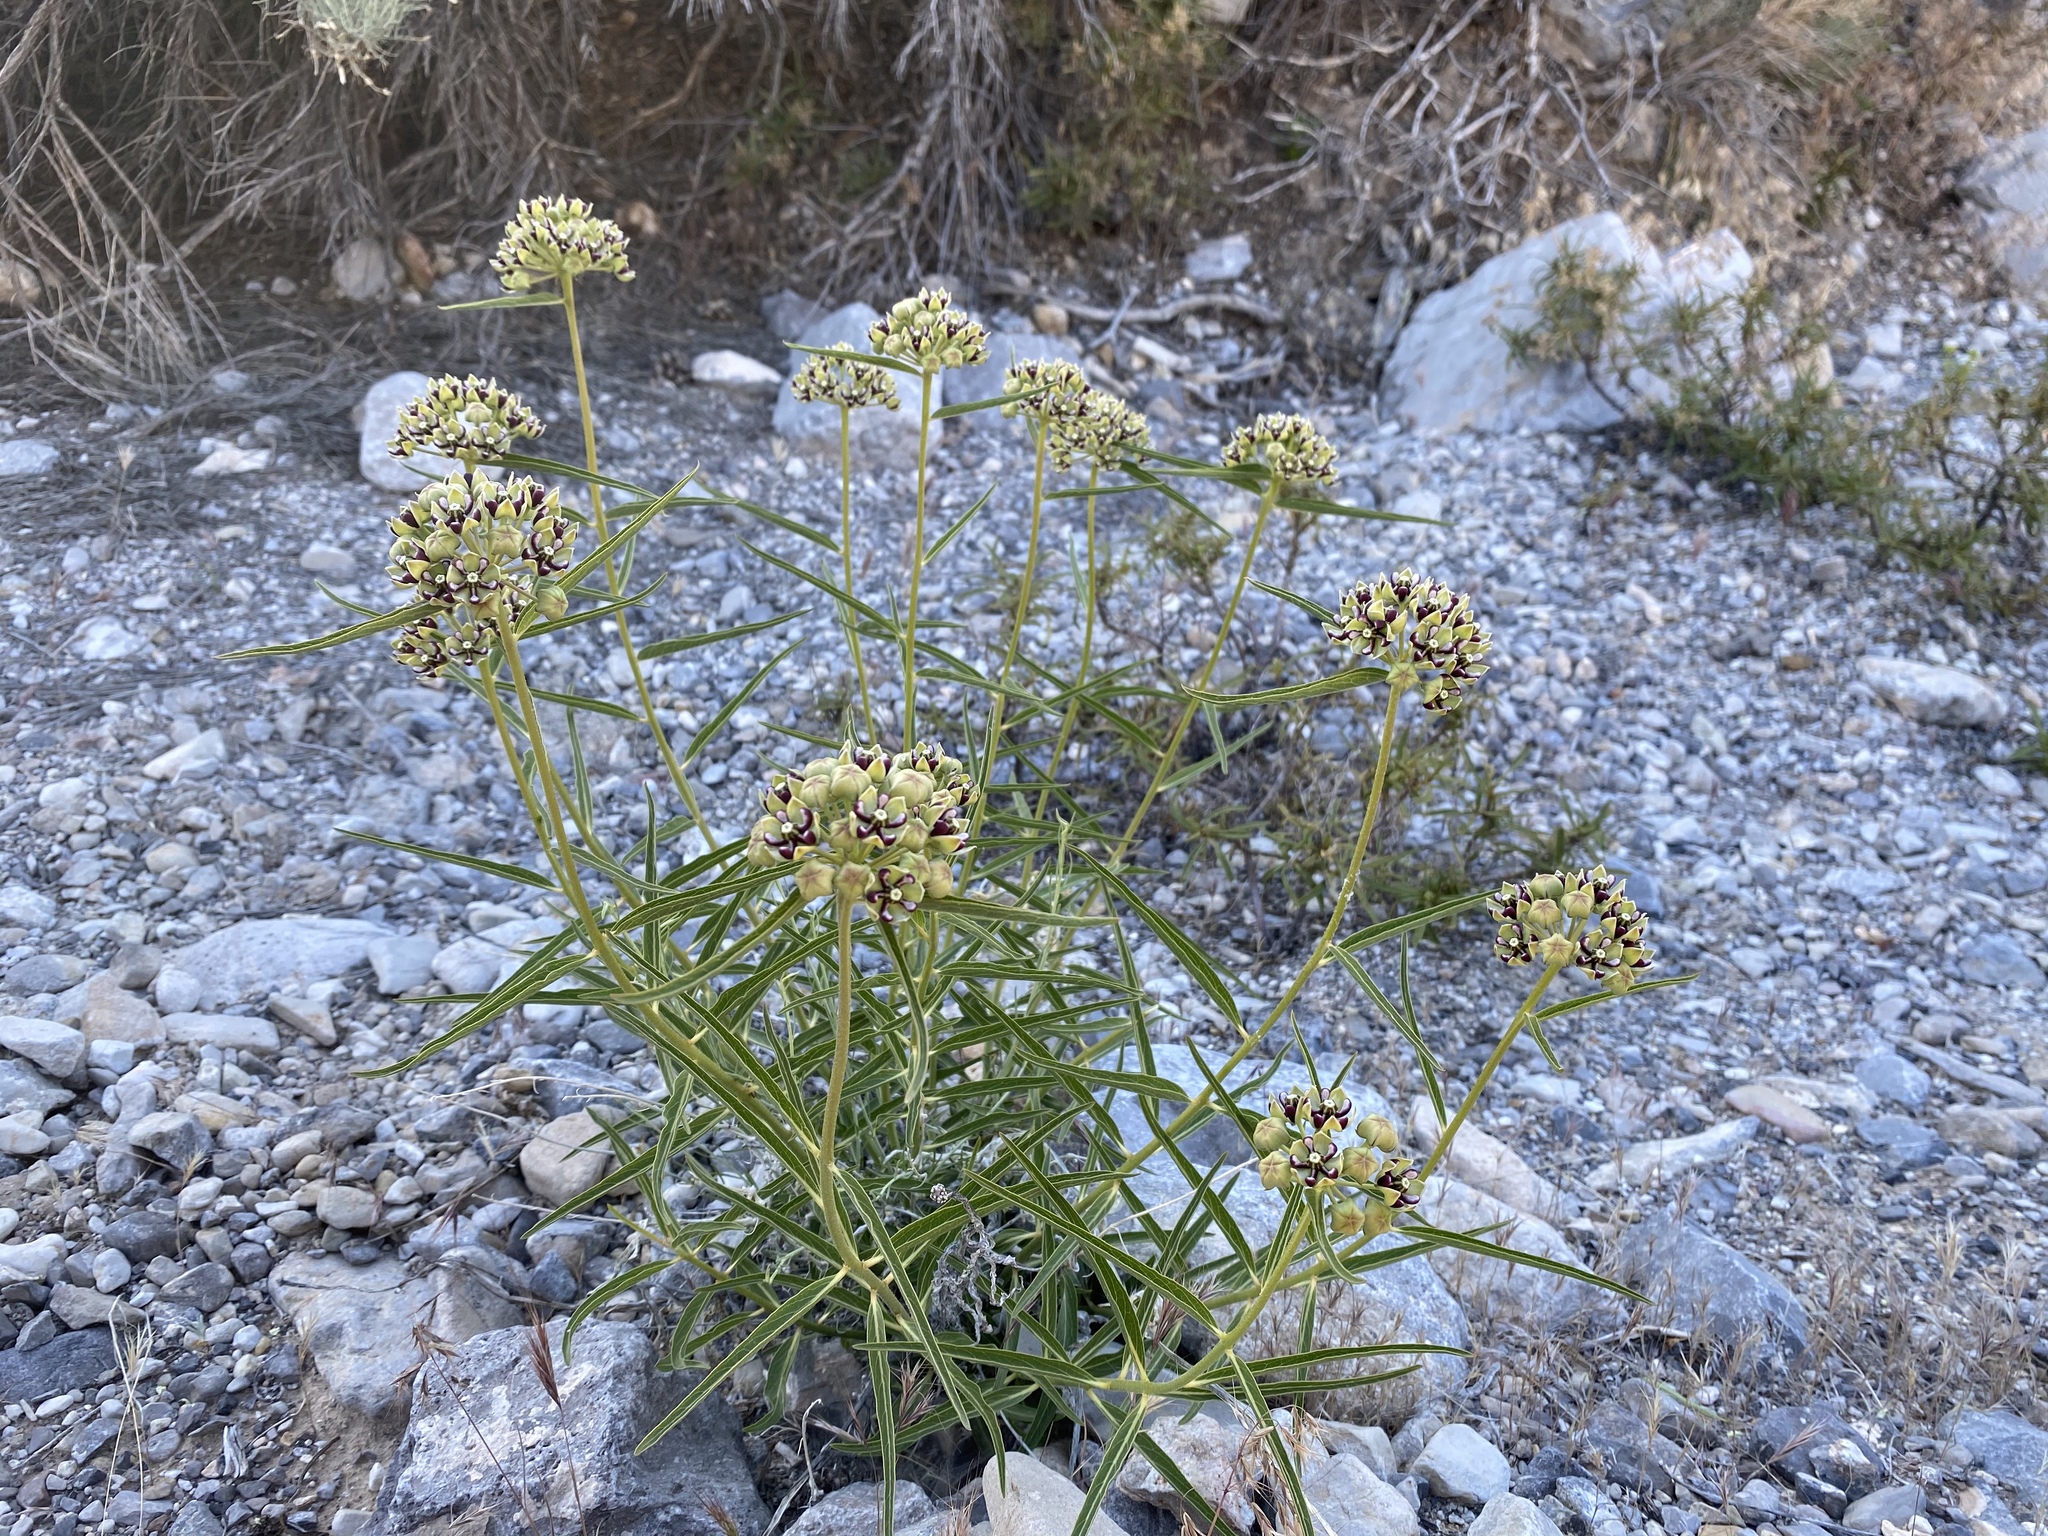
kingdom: Plantae
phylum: Tracheophyta
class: Magnoliopsida
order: Gentianales
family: Apocynaceae
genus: Asclepias
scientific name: Asclepias asperula
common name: Antelope horns
